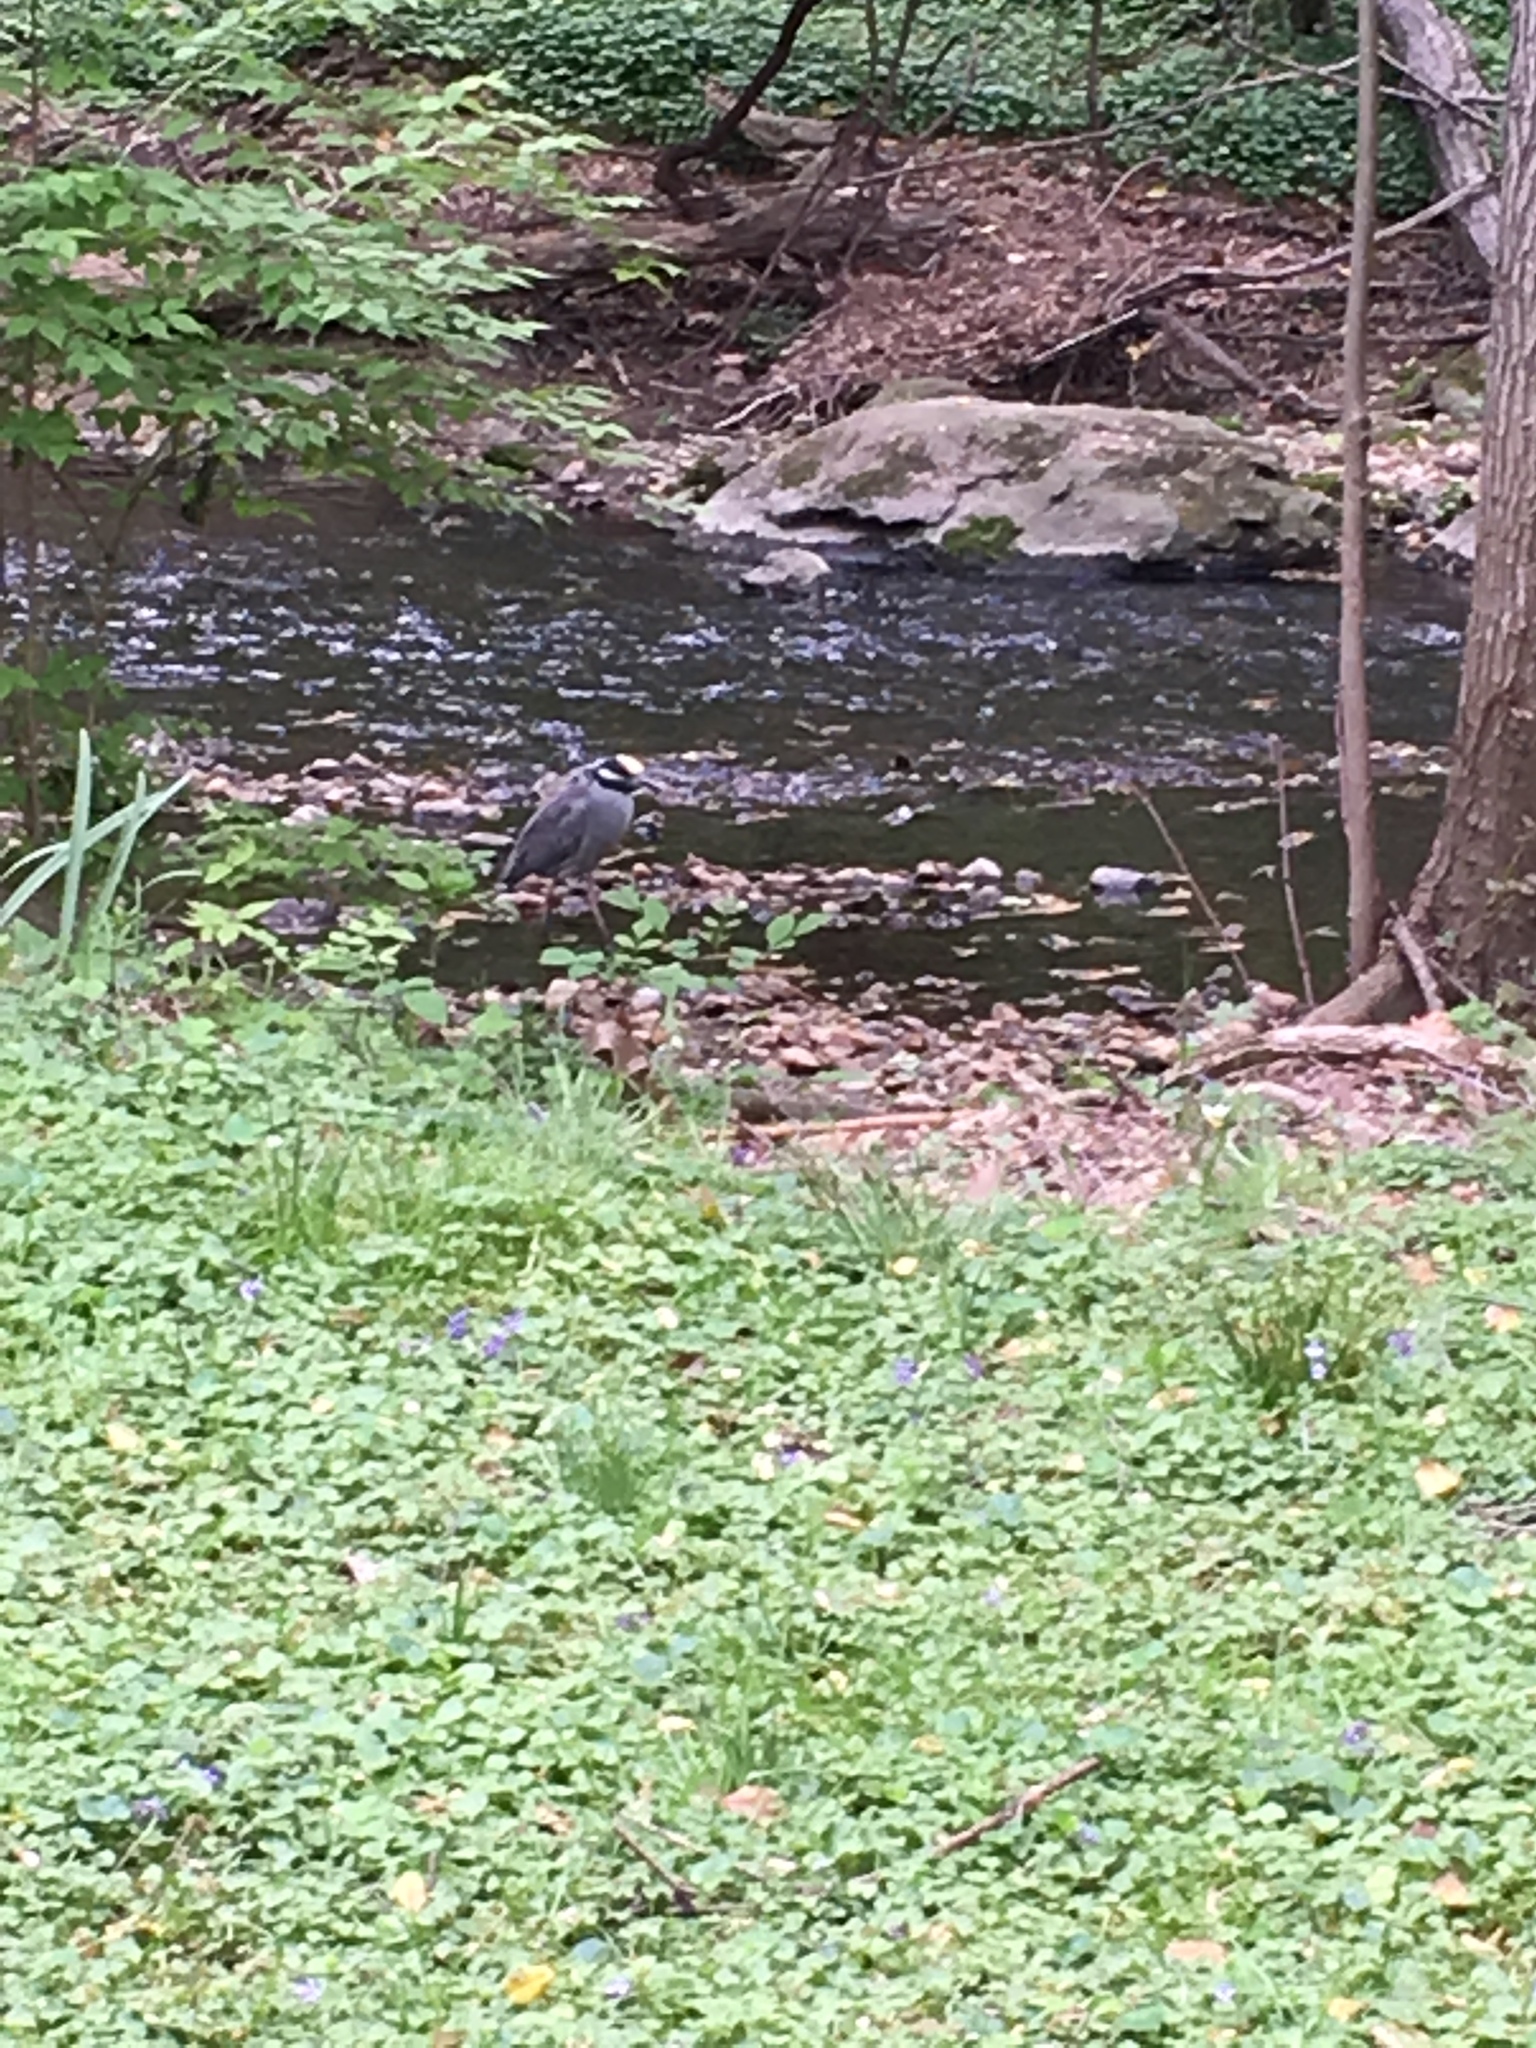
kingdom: Animalia
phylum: Chordata
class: Aves
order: Pelecaniformes
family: Ardeidae
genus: Nyctanassa
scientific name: Nyctanassa violacea
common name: Yellow-crowned night heron
